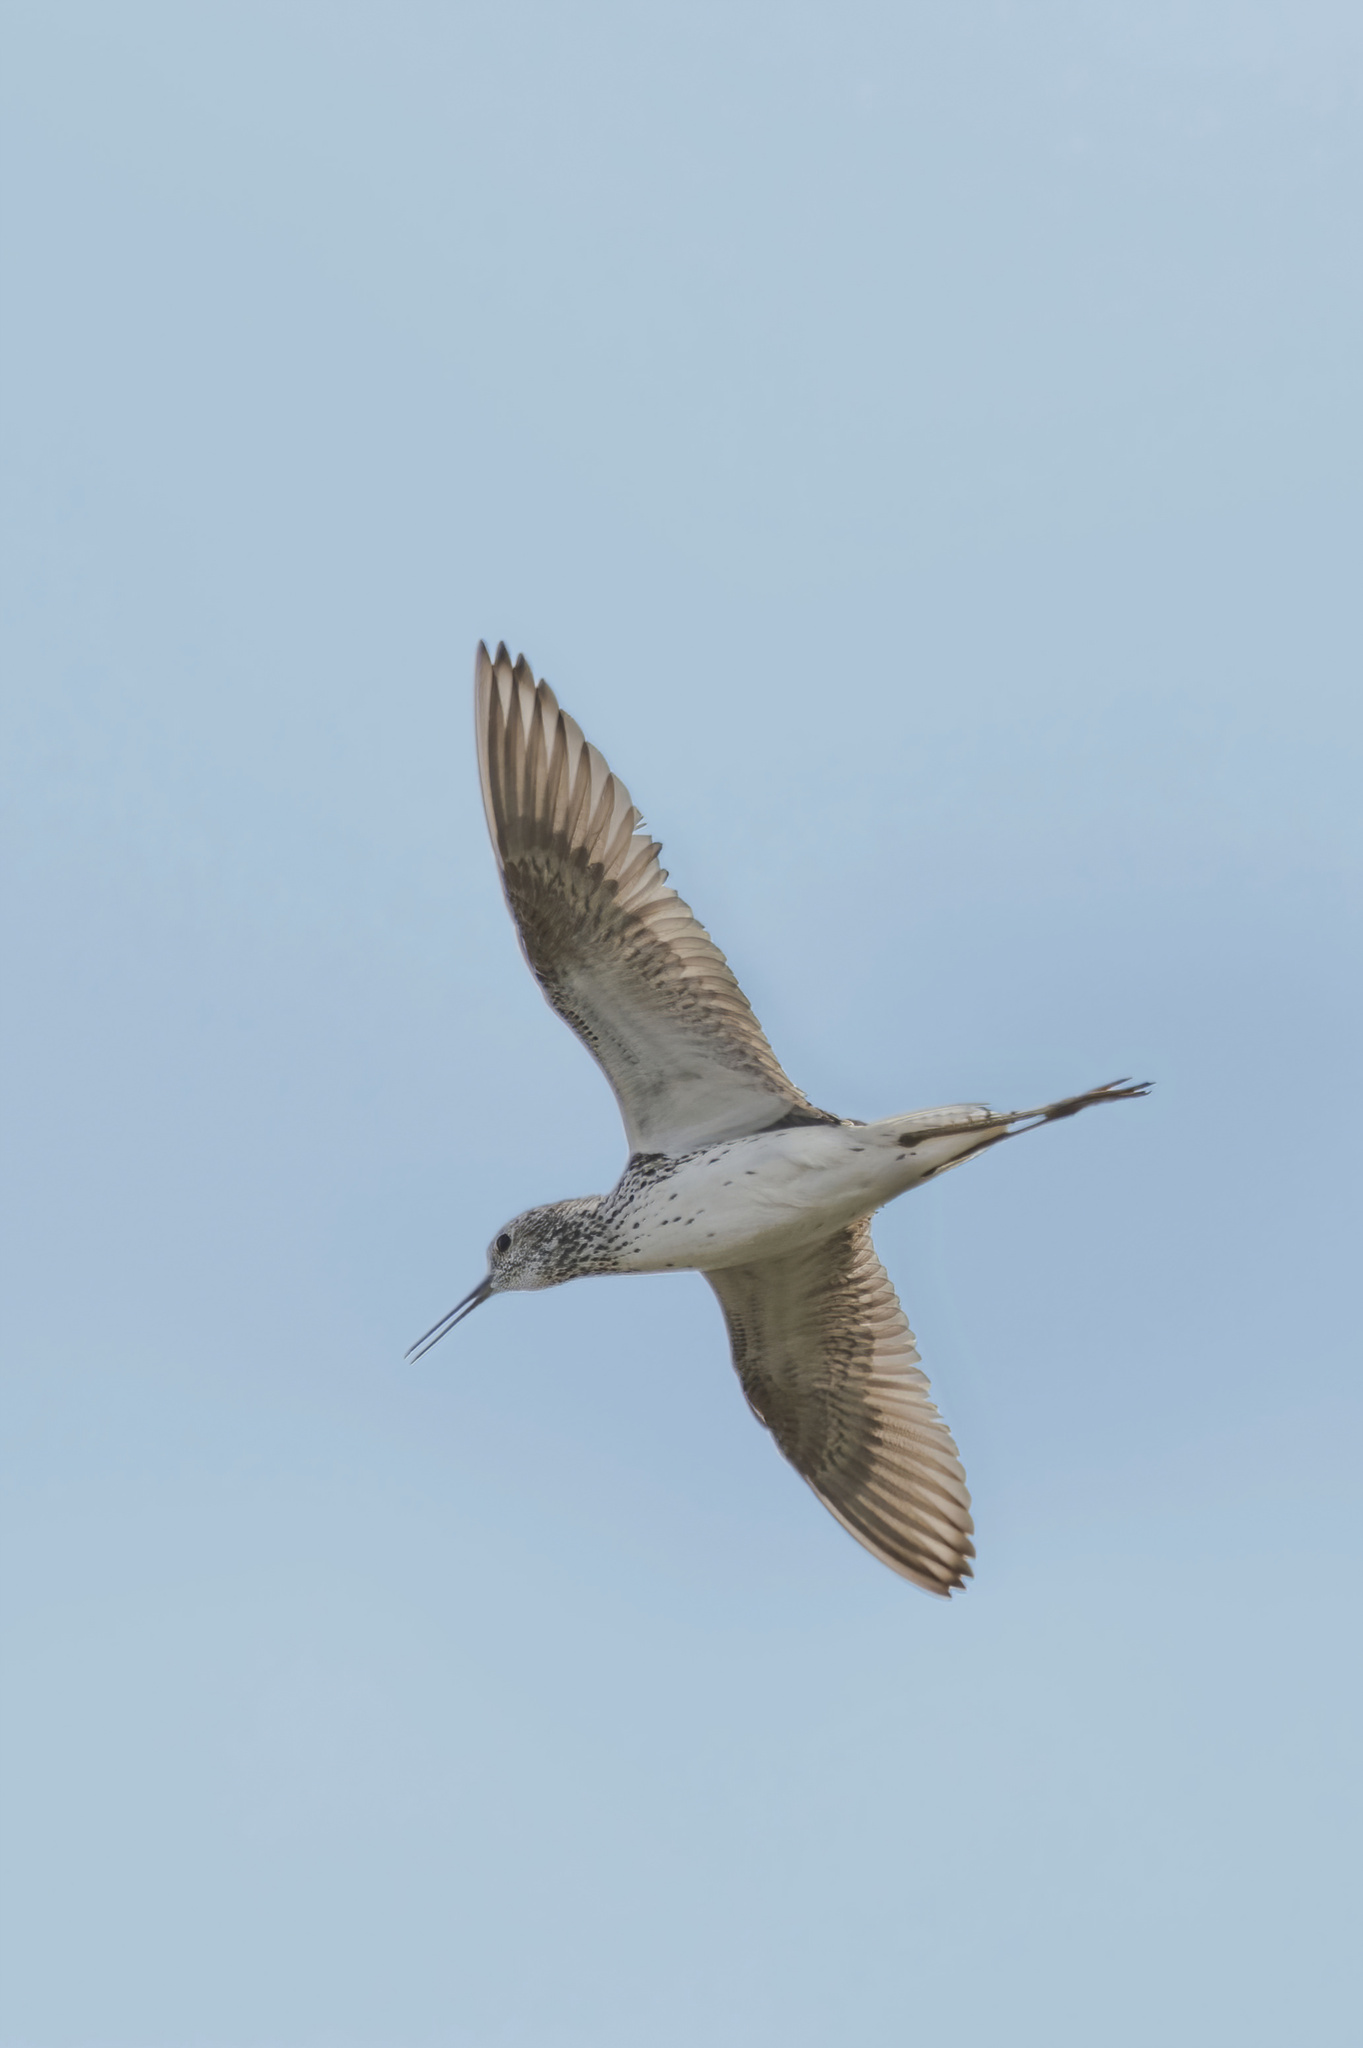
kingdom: Animalia
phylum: Chordata
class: Aves
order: Charadriiformes
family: Scolopacidae
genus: Tringa
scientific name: Tringa stagnatilis
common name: Marsh sandpiper
